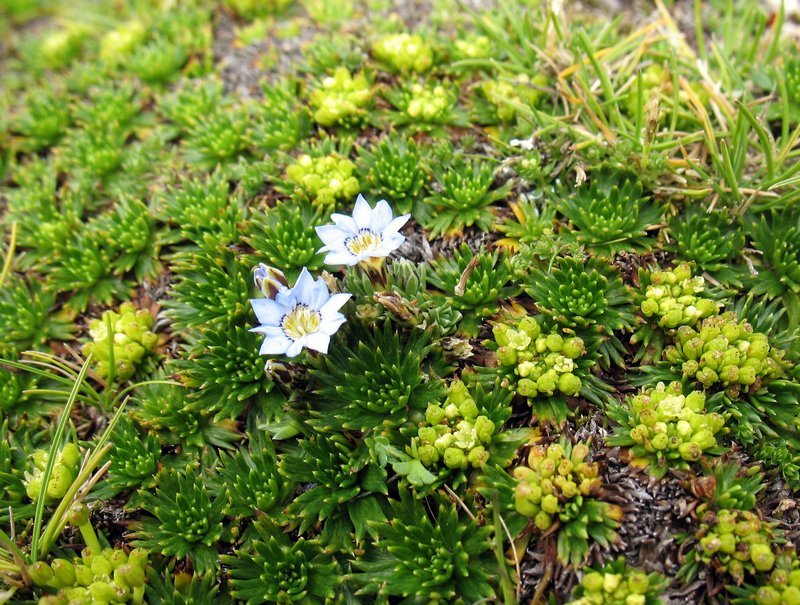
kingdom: Plantae
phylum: Tracheophyta
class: Magnoliopsida
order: Gentianales
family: Gentianaceae
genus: Gentiana
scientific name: Gentiana sedifolia
